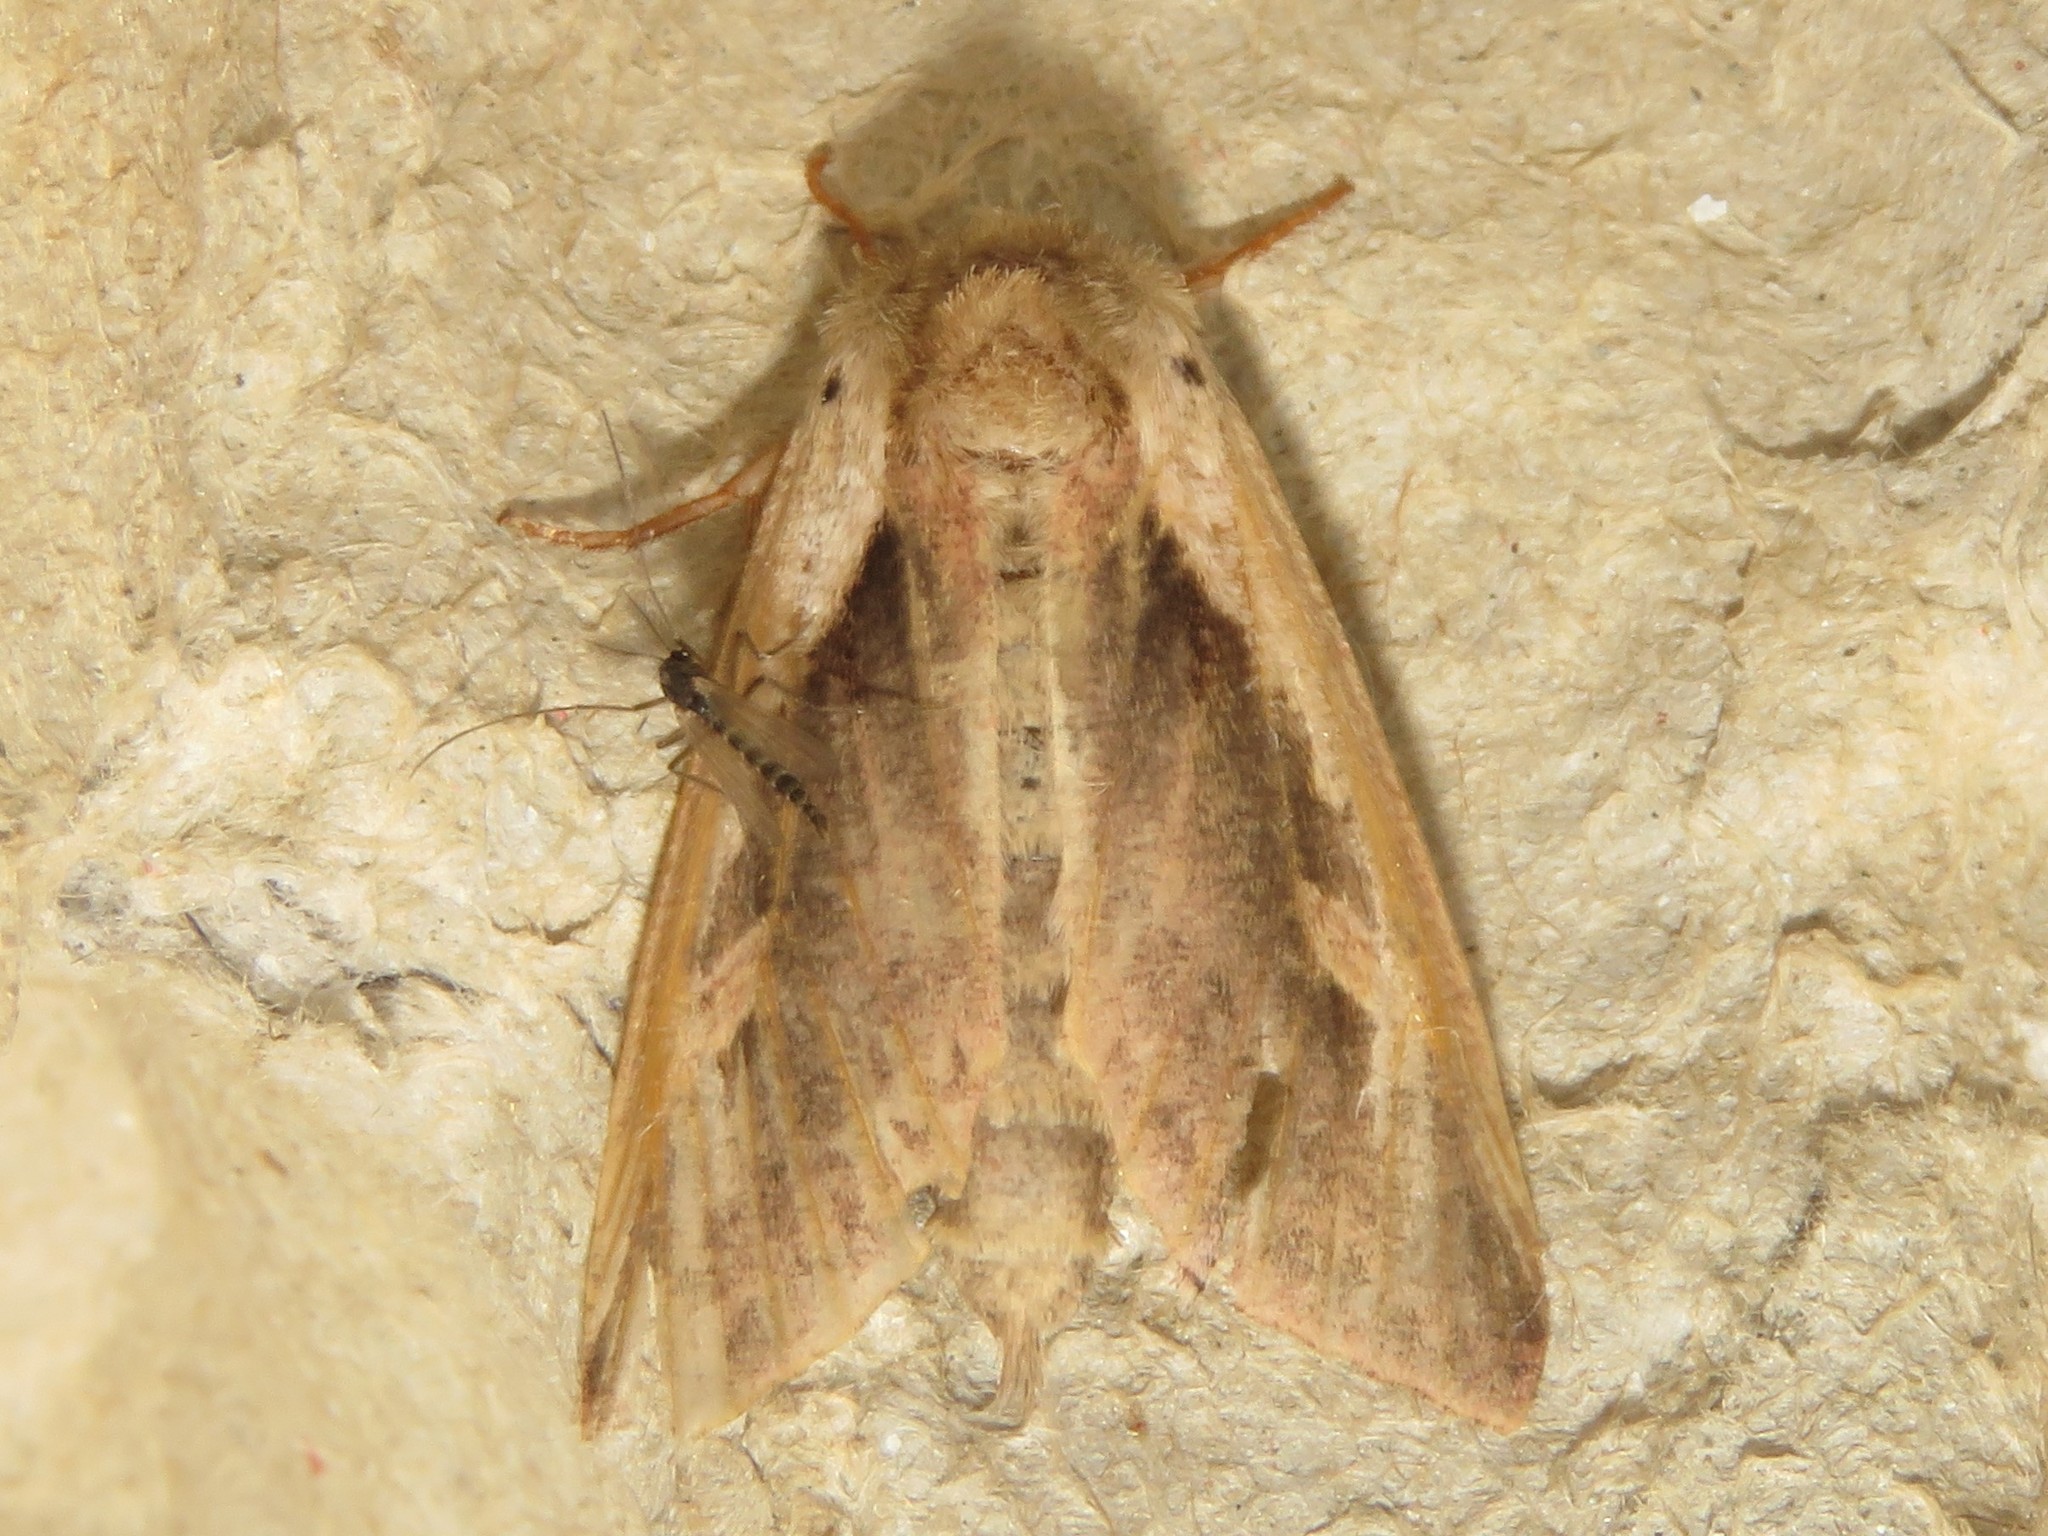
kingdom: Animalia
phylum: Arthropoda
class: Insecta
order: Lepidoptera
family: Noctuidae
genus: Bellura
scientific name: Bellura obliqua
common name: Cattail borer moth
